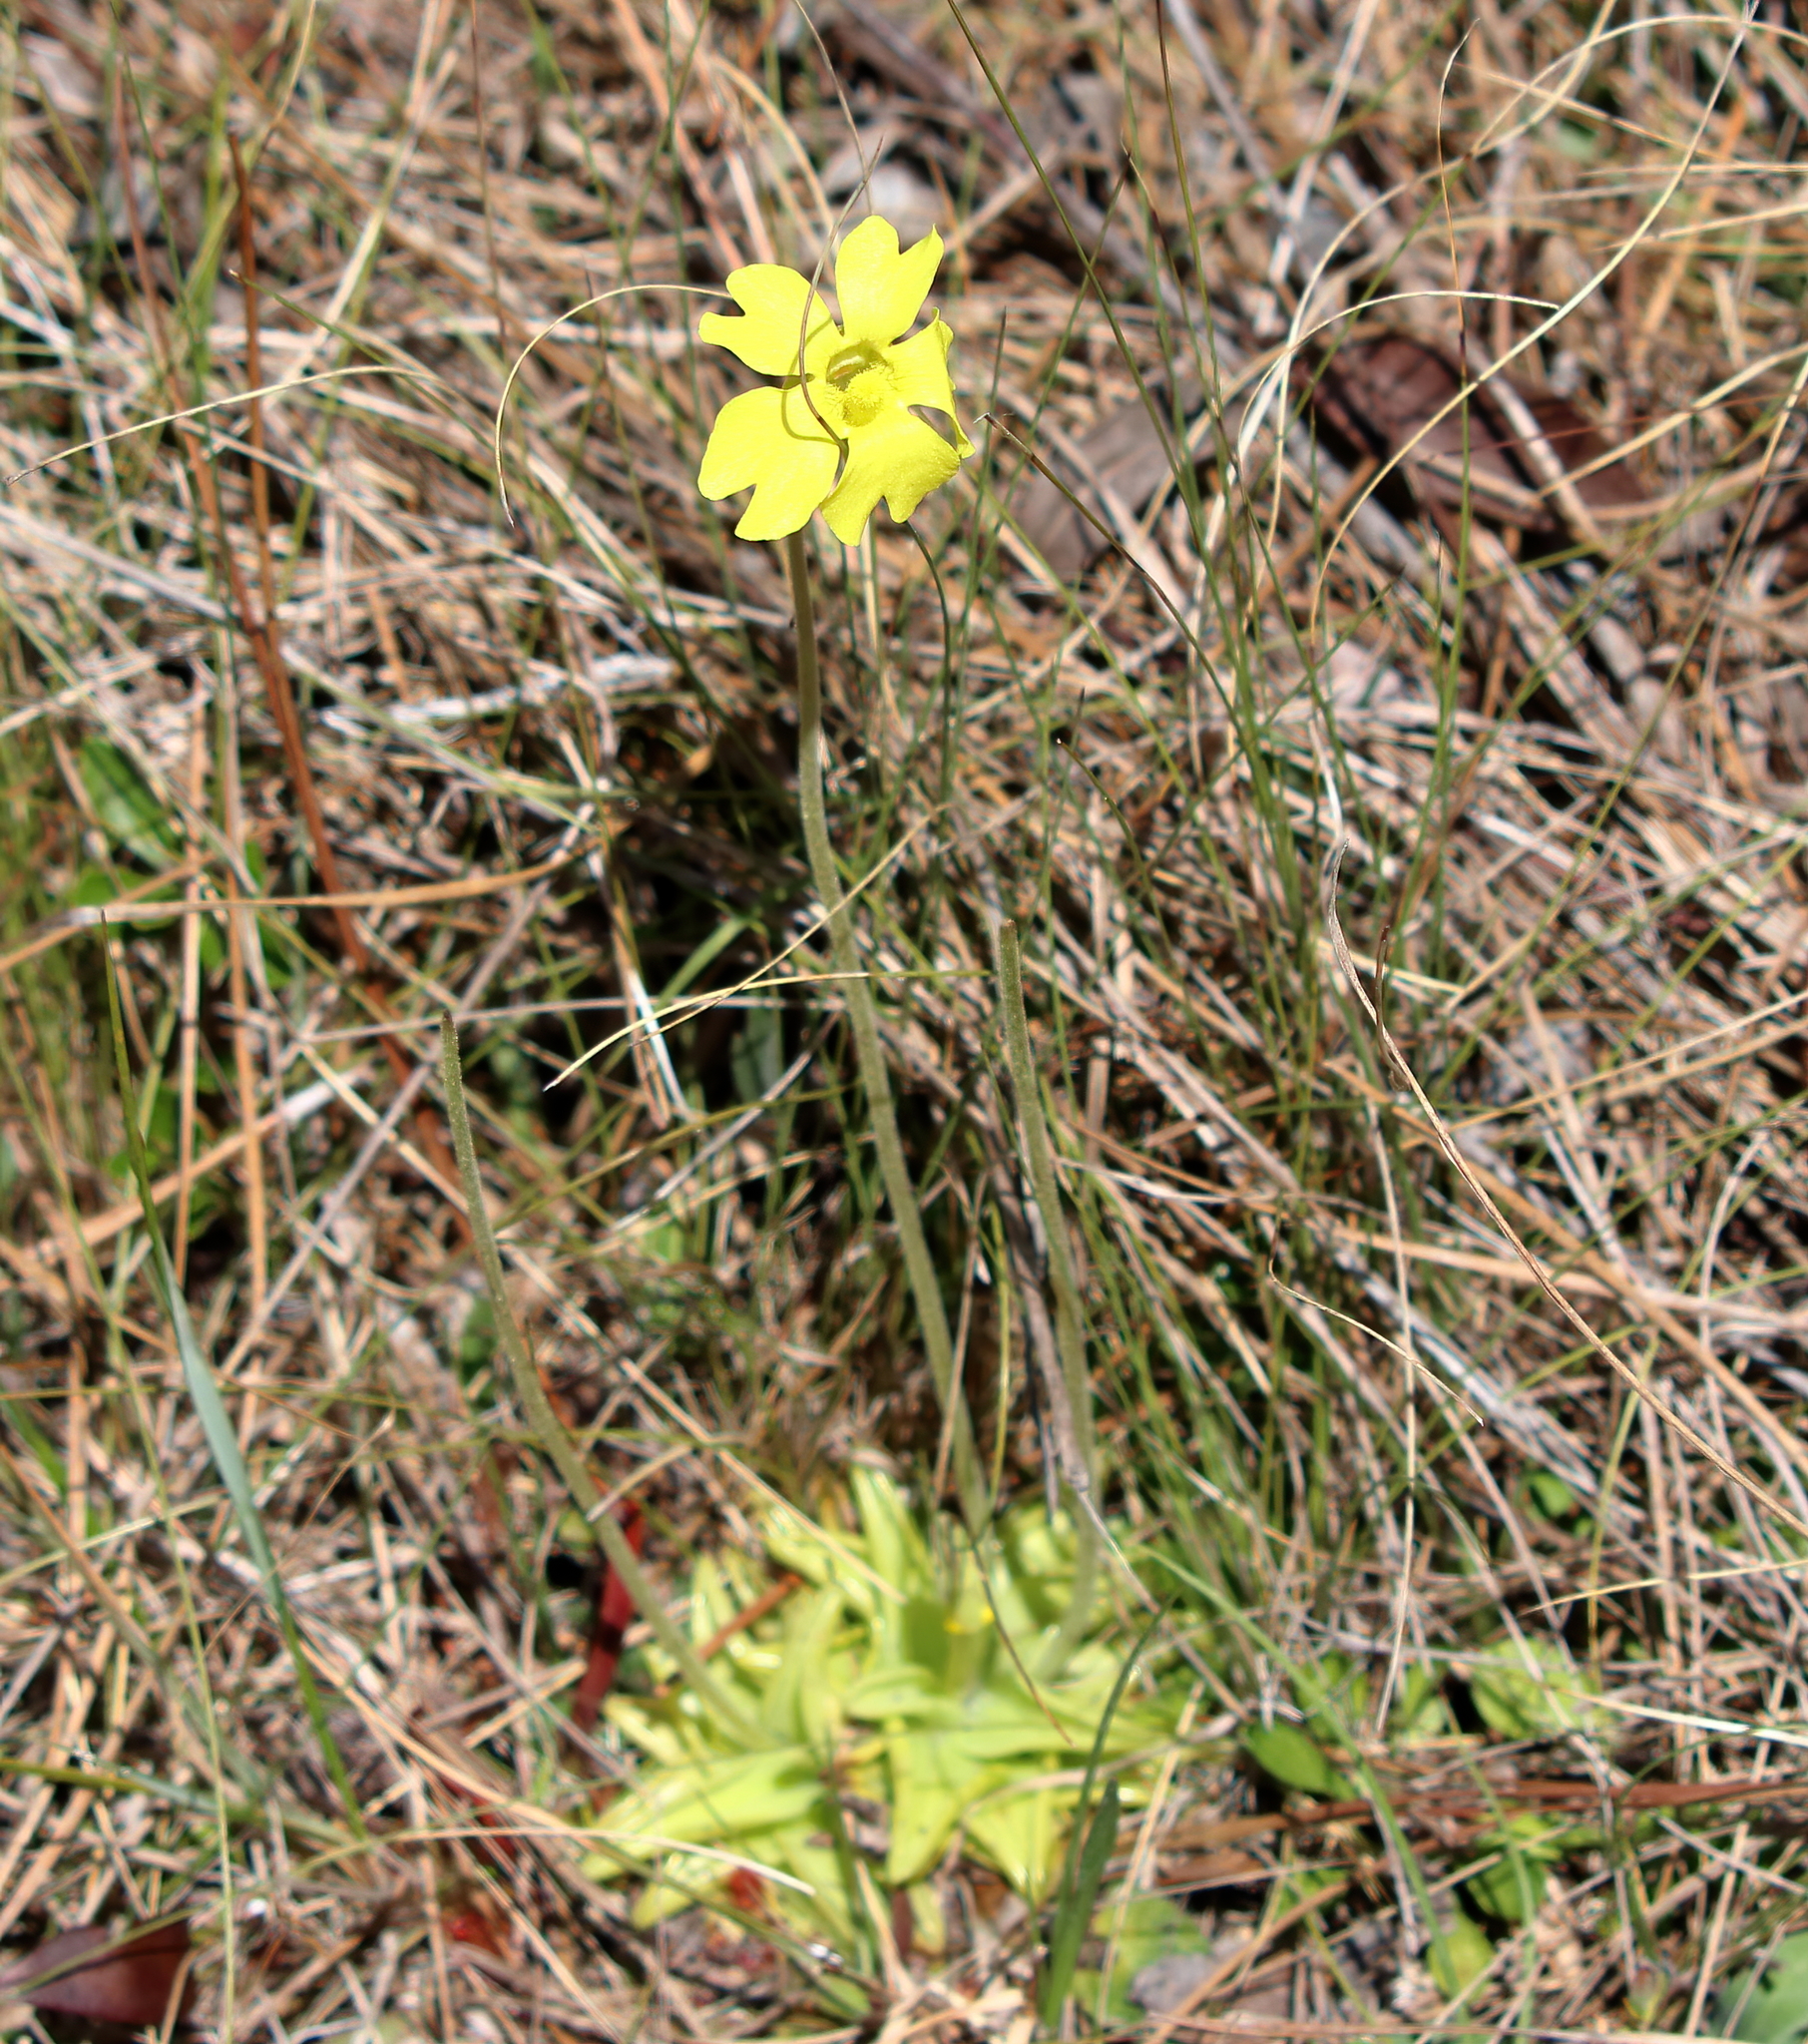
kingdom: Plantae
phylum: Tracheophyta
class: Magnoliopsida
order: Lamiales
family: Lentibulariaceae
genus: Pinguicula
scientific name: Pinguicula lutea
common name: Yellow butterwort
